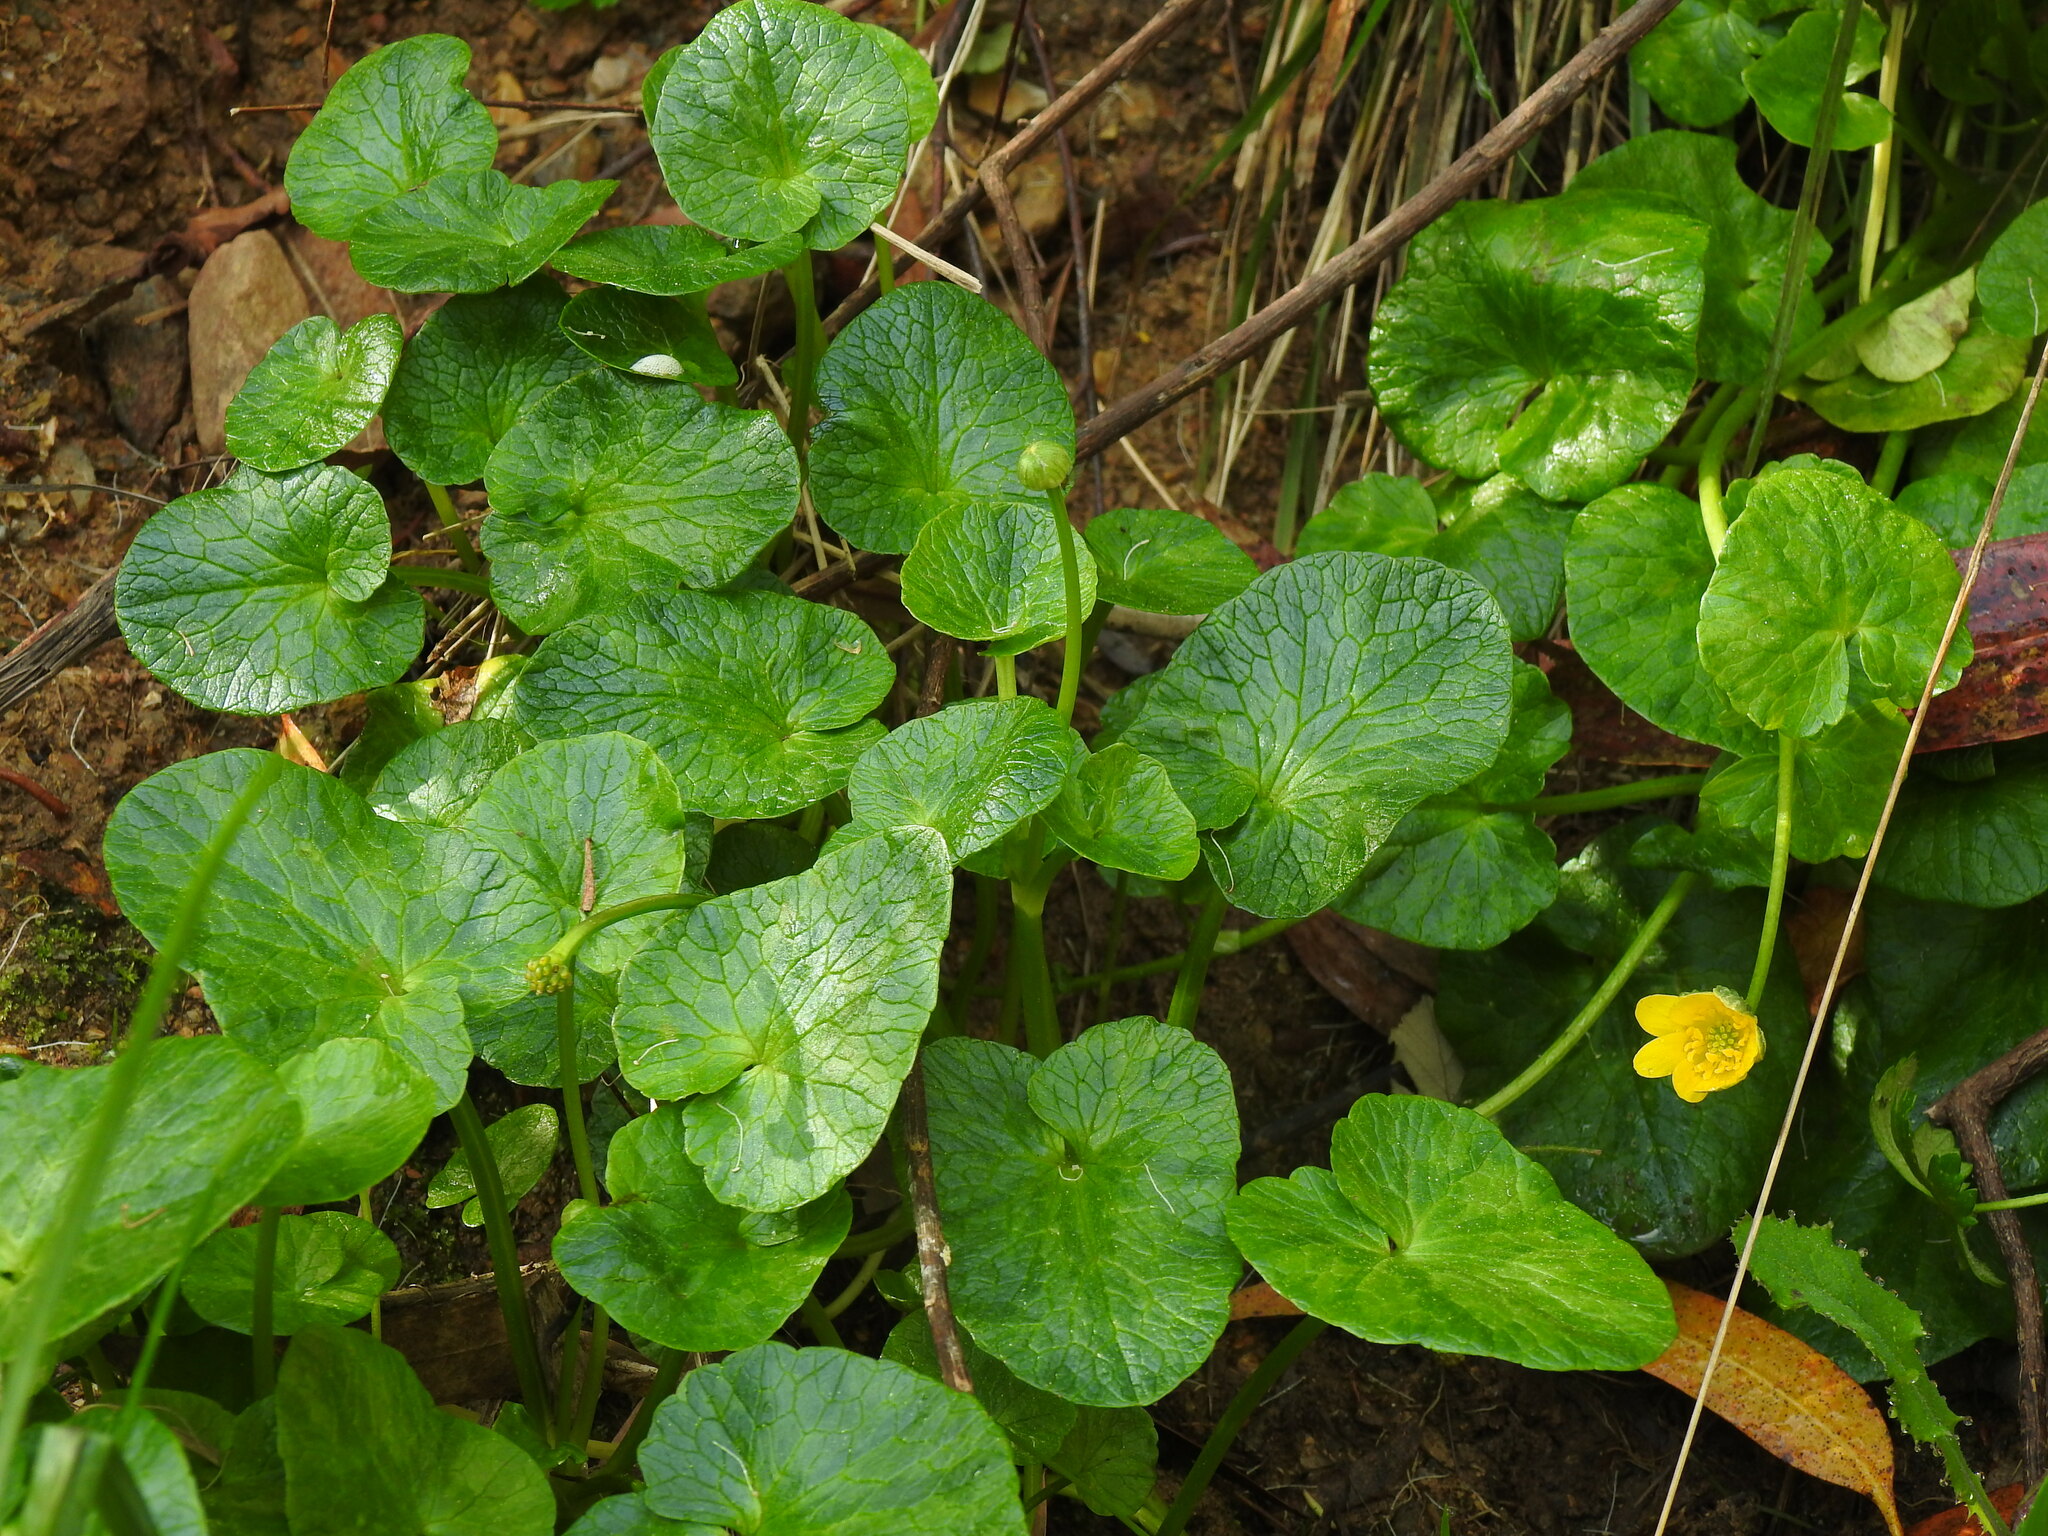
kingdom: Plantae
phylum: Tracheophyta
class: Magnoliopsida
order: Ranunculales
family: Ranunculaceae
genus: Ficaria
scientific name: Ficaria verna
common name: Lesser celandine
